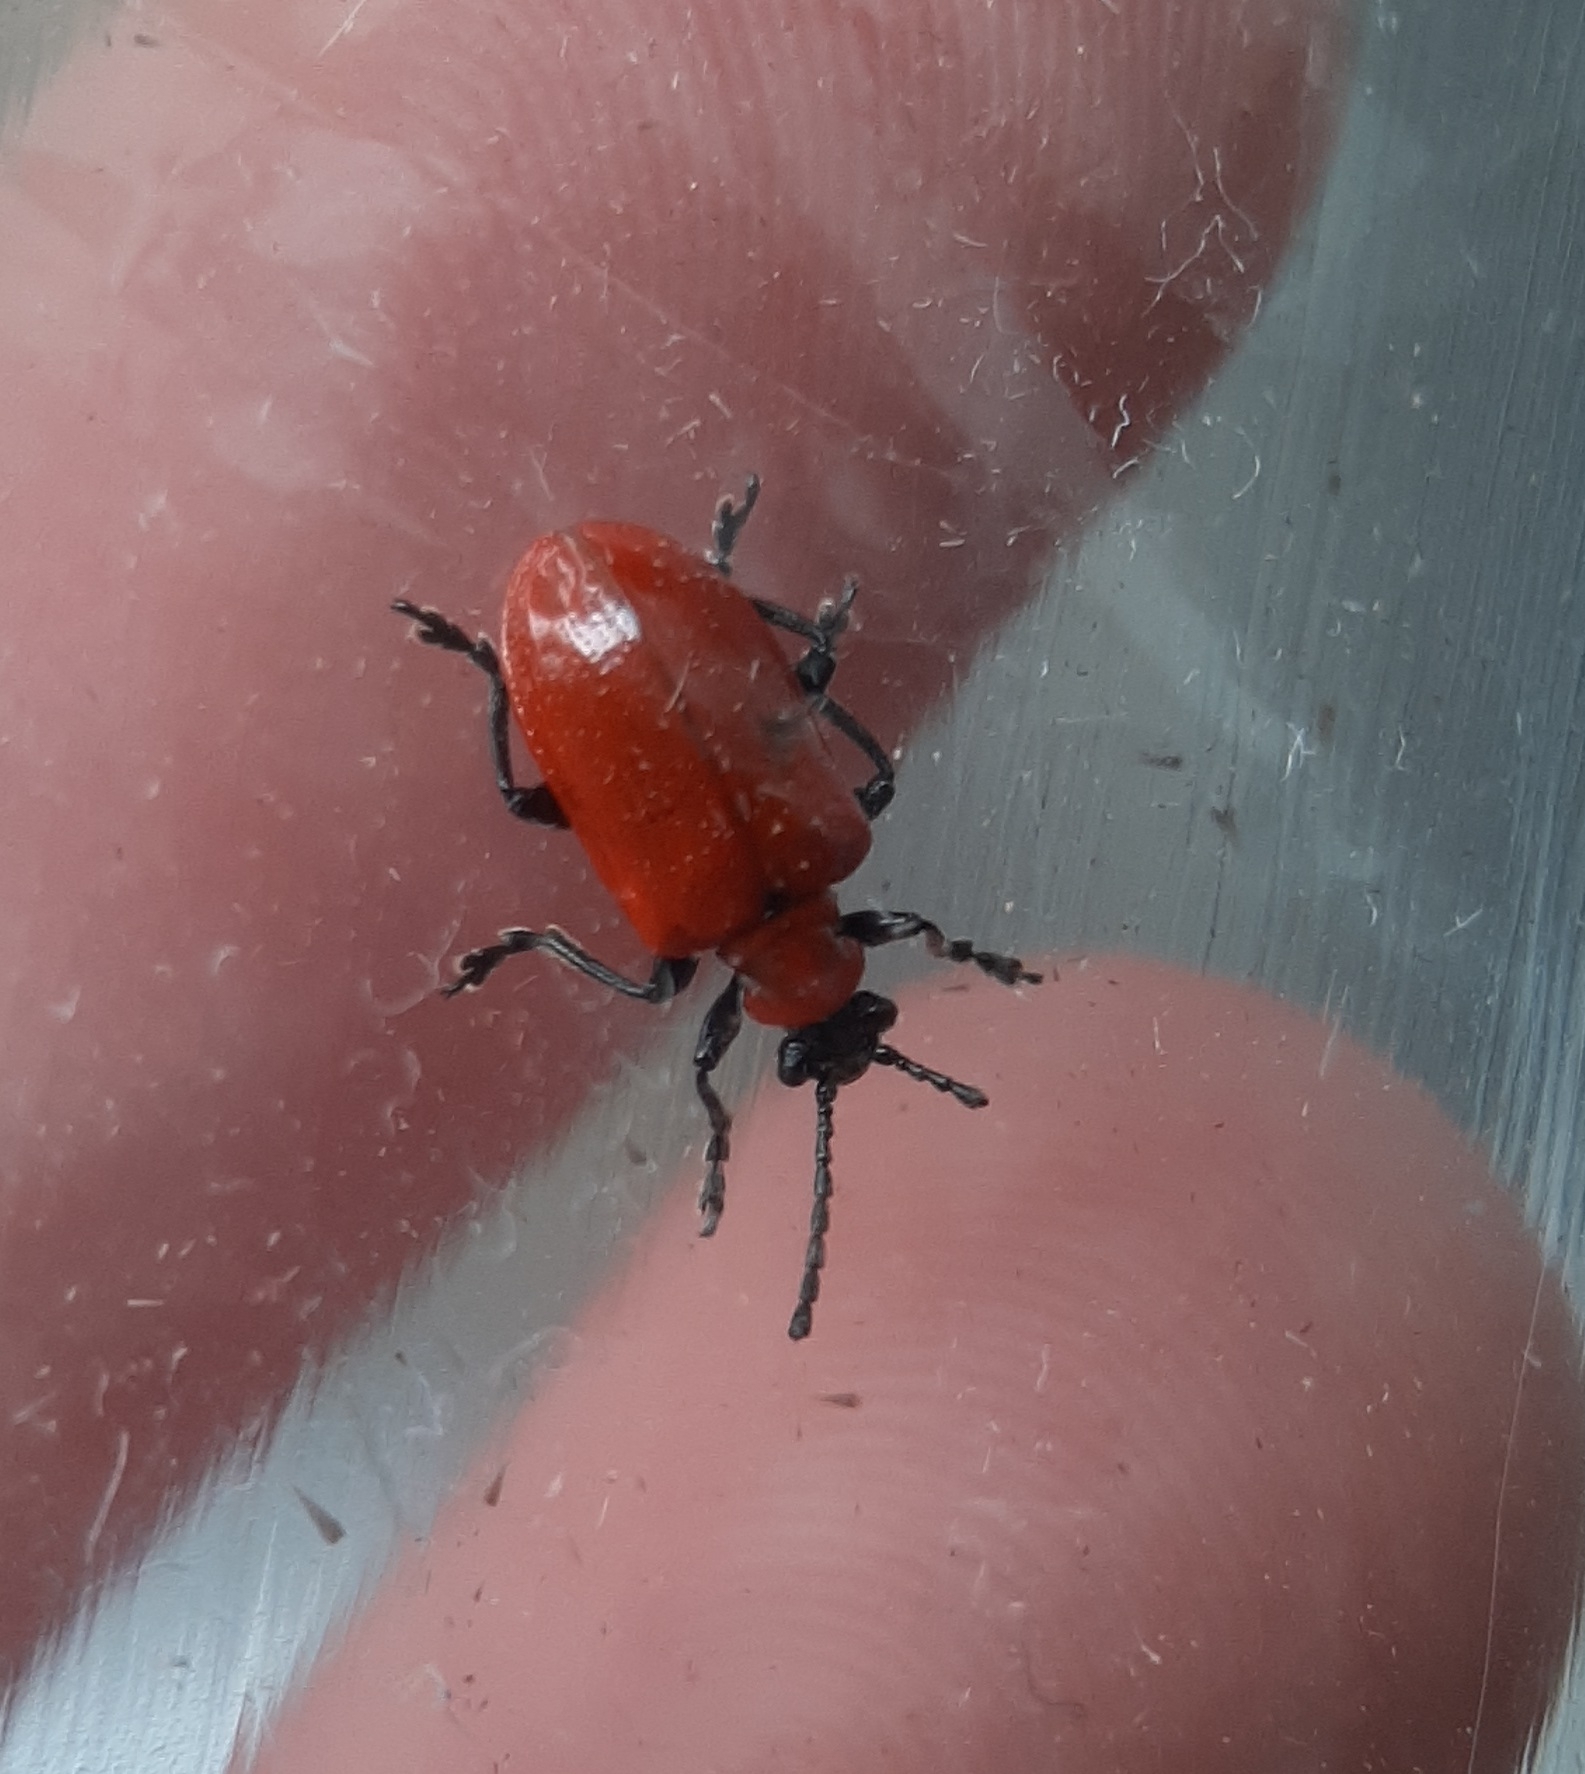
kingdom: Animalia
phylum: Arthropoda
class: Insecta
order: Coleoptera
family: Chrysomelidae
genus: Lilioceris
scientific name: Lilioceris lilii
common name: Lily beetle
